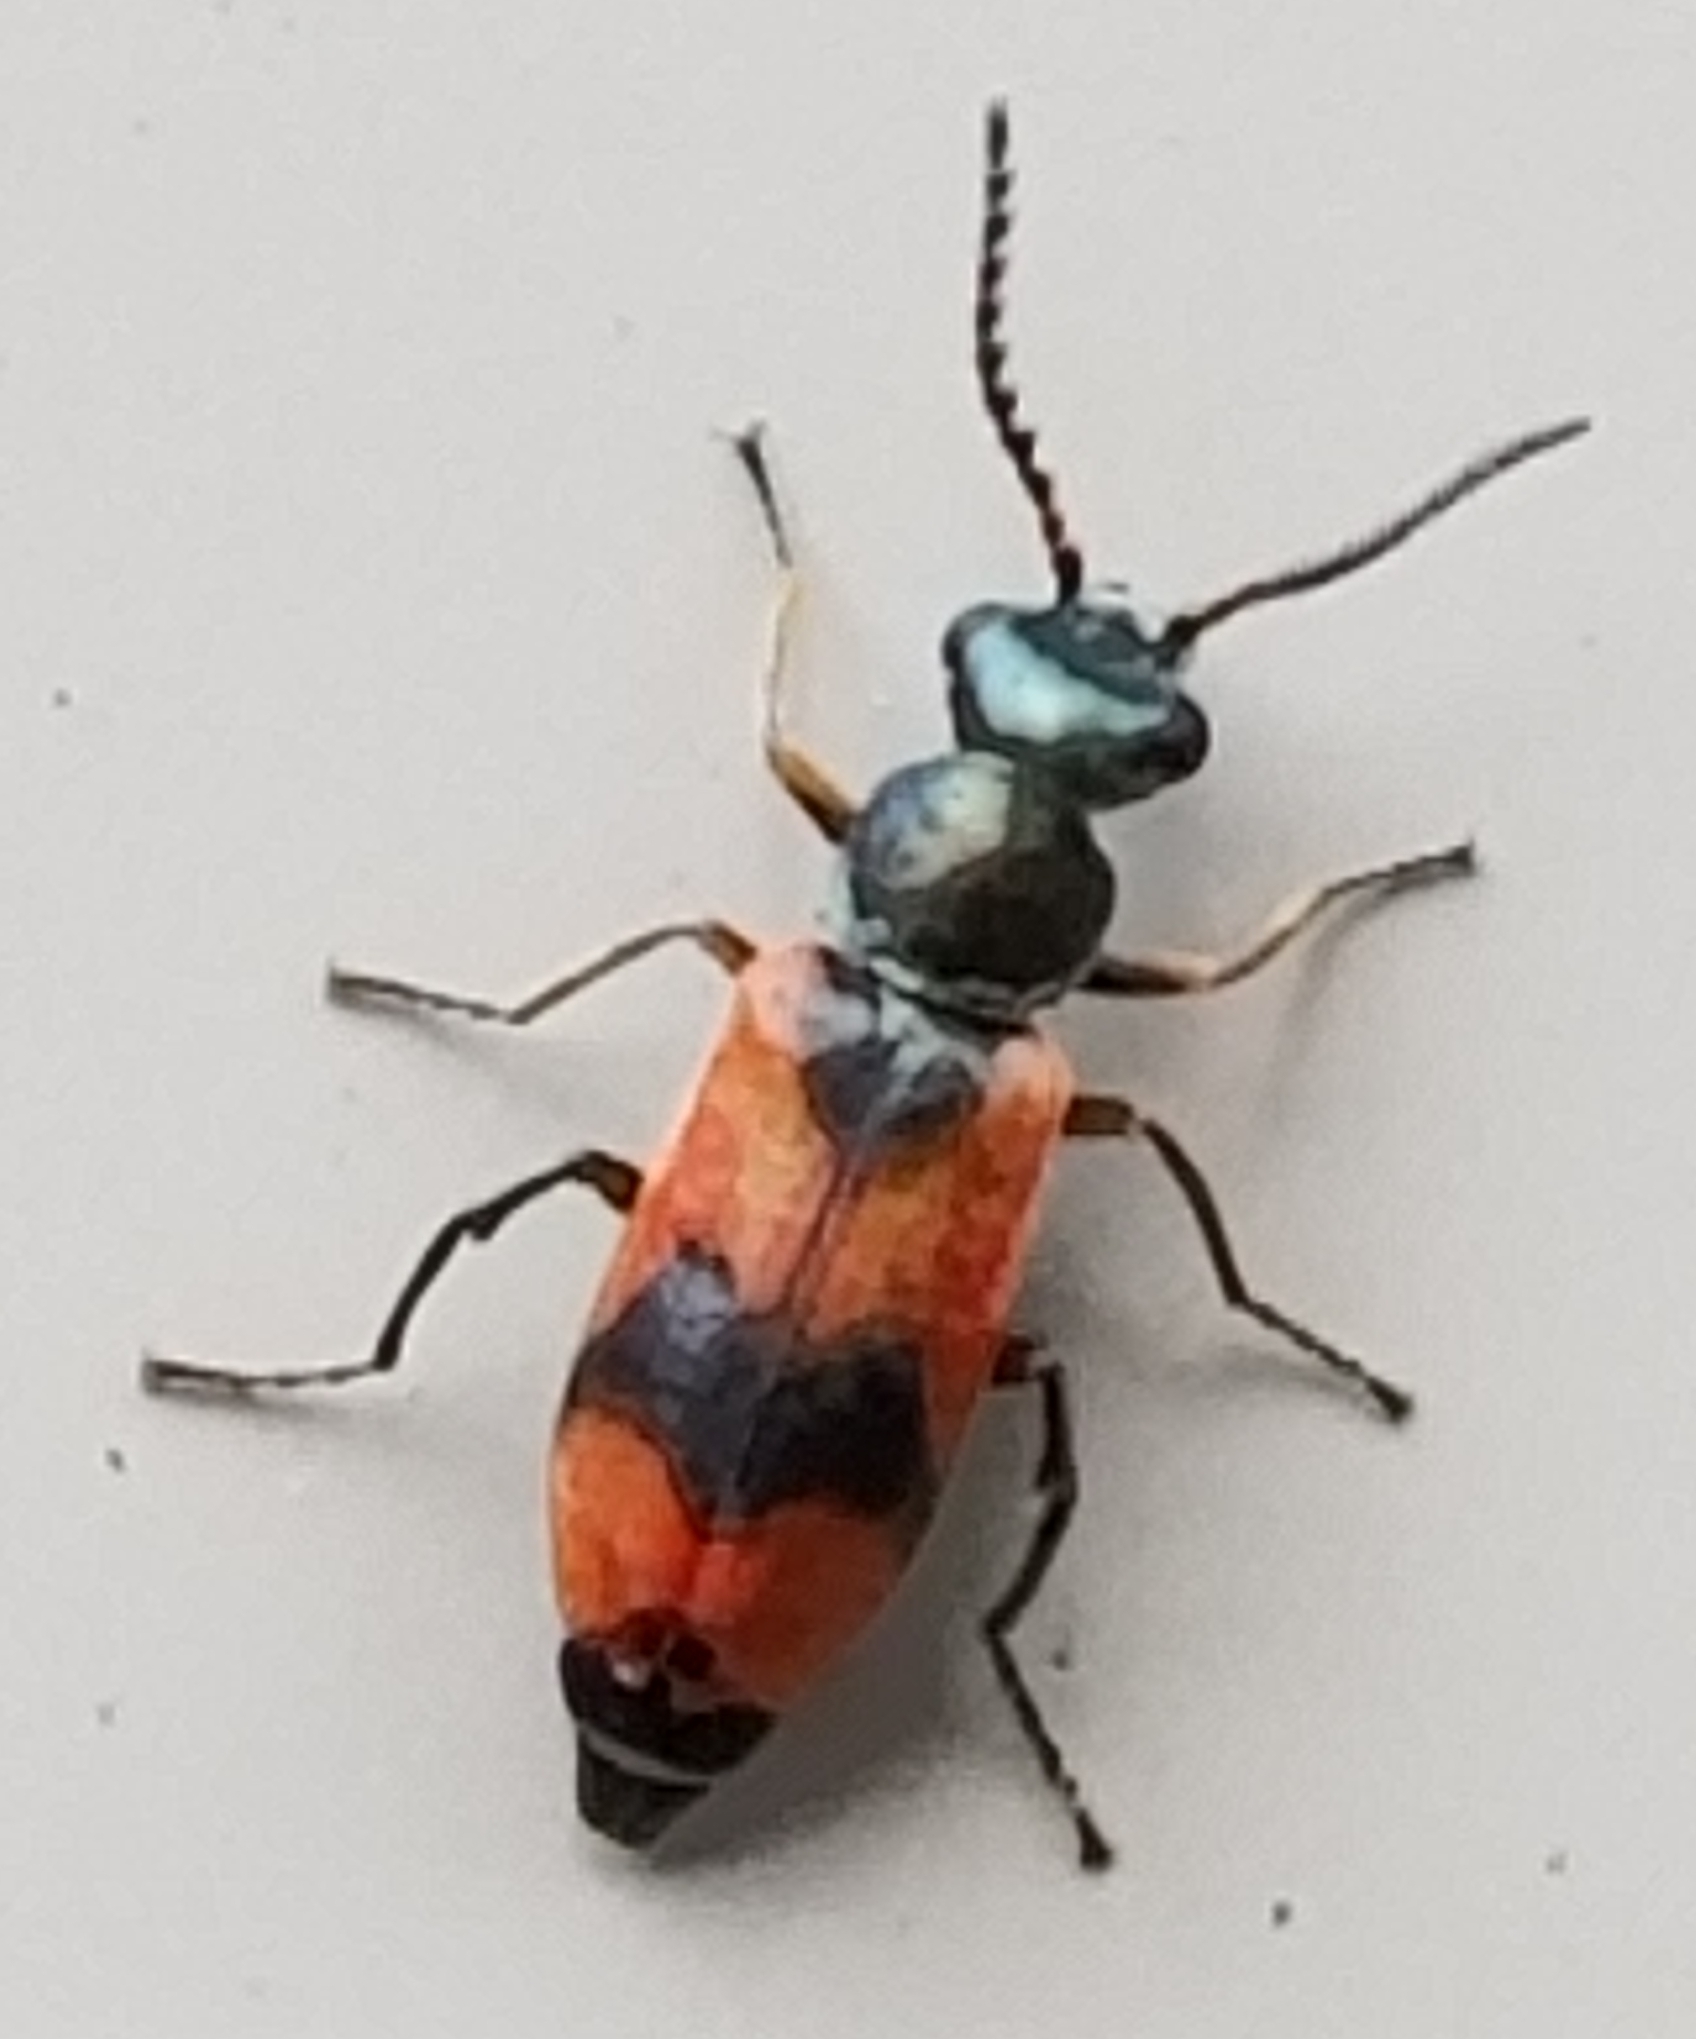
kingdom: Animalia
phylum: Arthropoda
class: Insecta
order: Coleoptera
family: Melyridae
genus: Anthocomus
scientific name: Anthocomus equestris
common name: Black-banded soft-winged flower beetle
